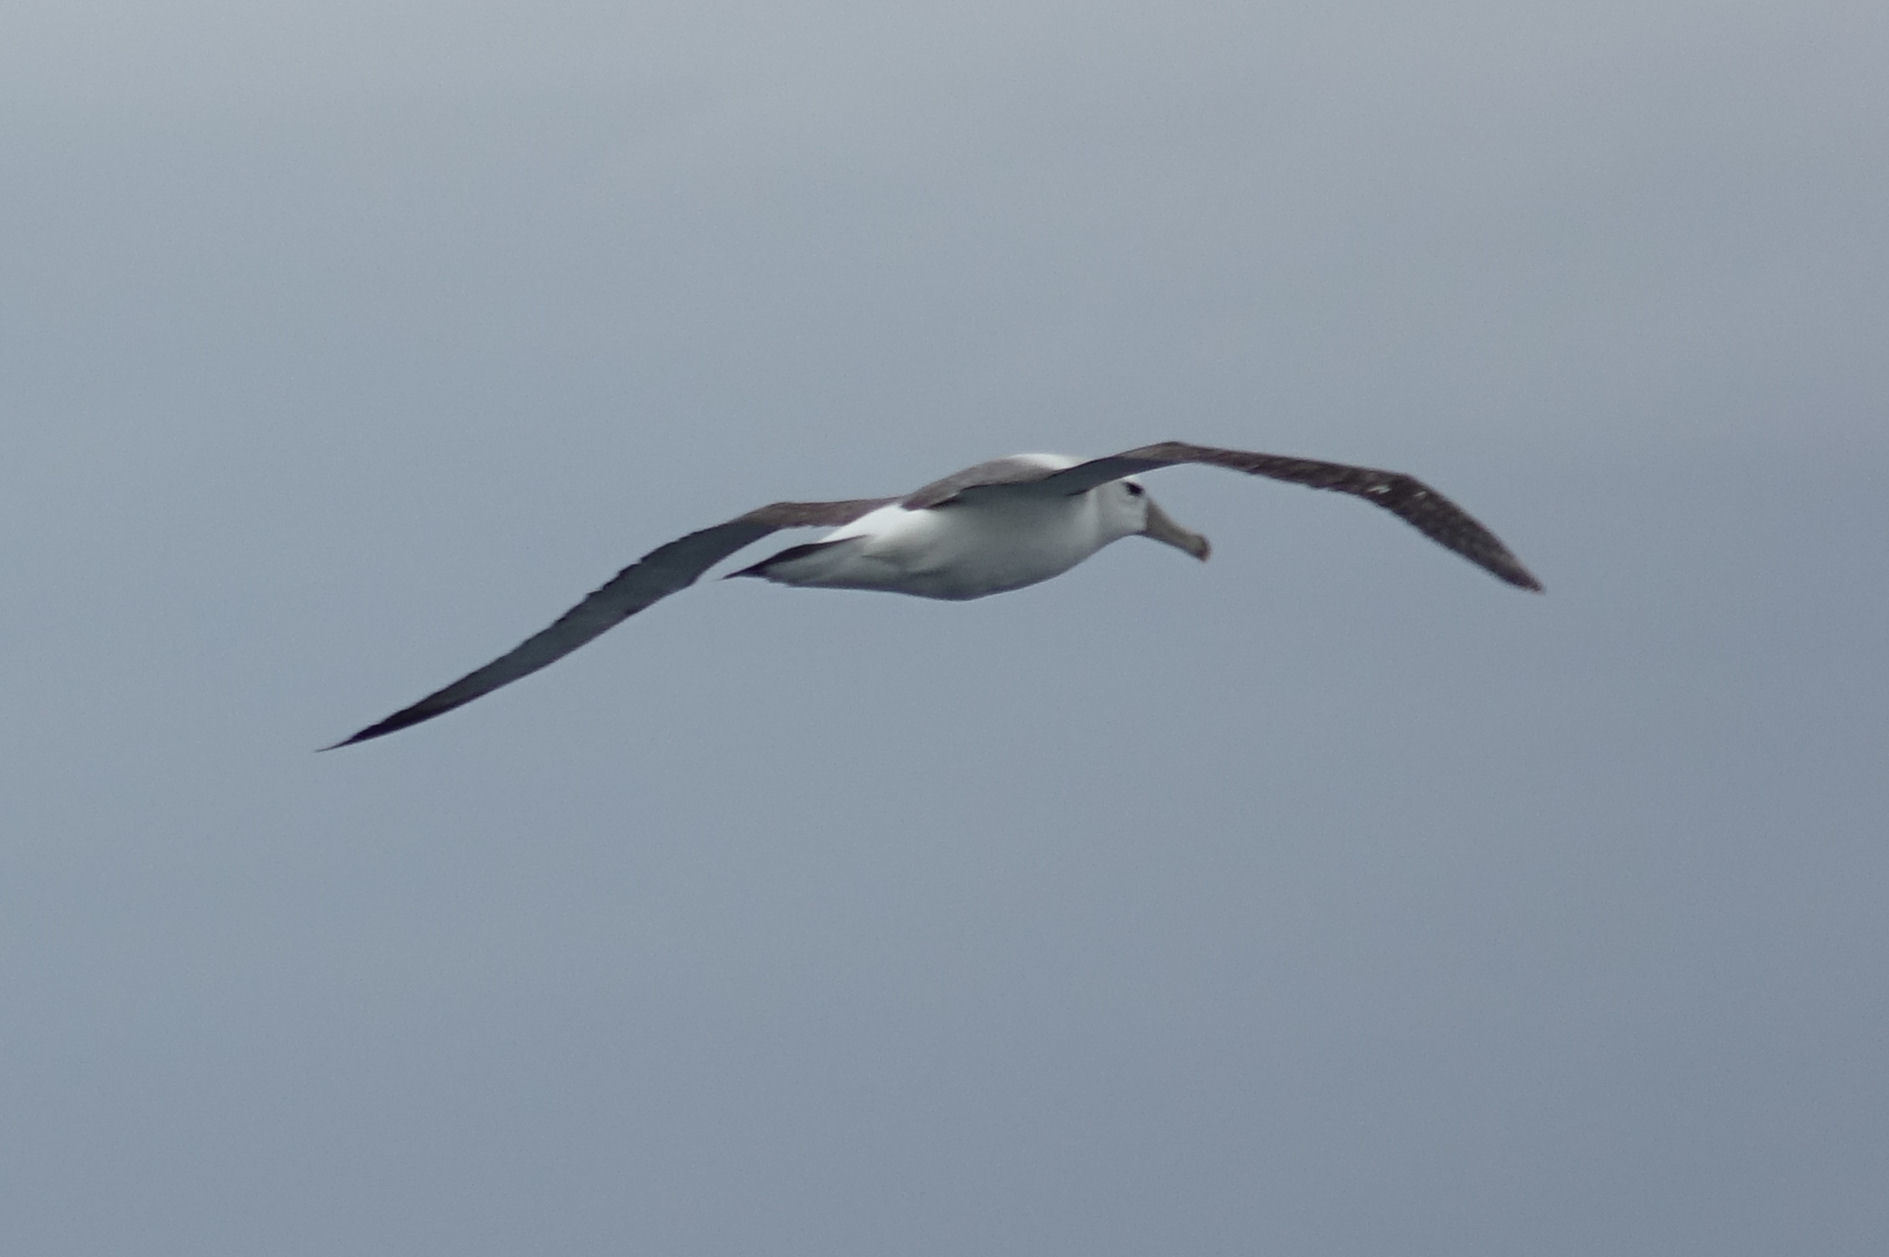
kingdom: Animalia
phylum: Chordata
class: Aves
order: Procellariiformes
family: Diomedeidae
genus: Thalassarche
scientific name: Thalassarche cauta
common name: Shy albatross
